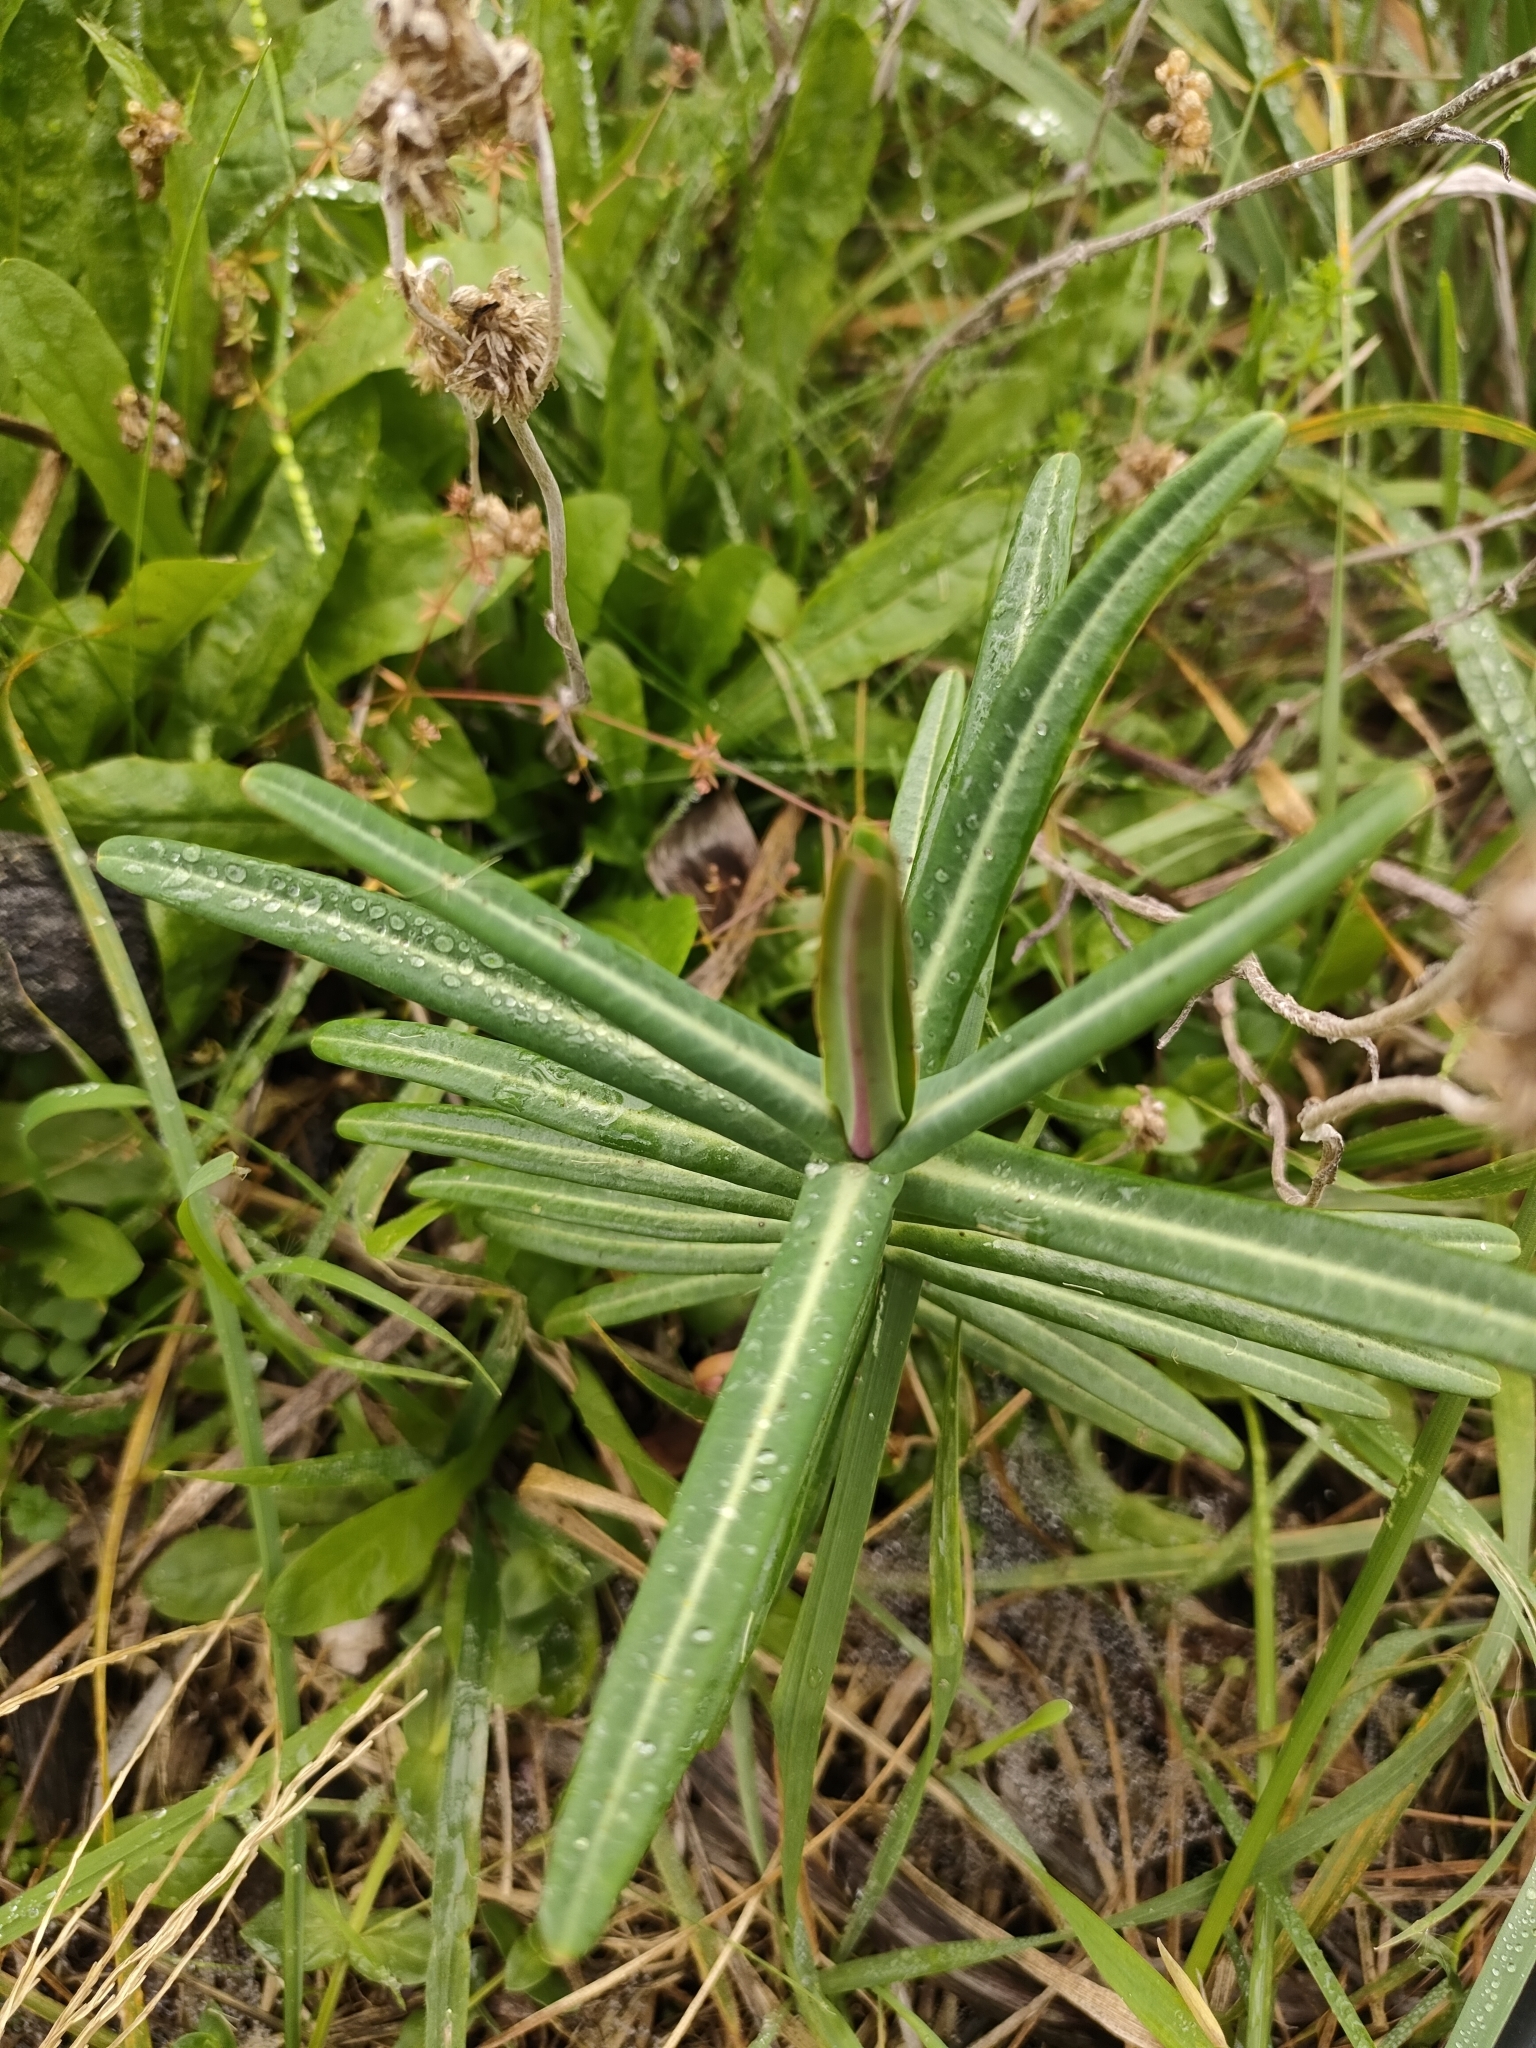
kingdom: Plantae
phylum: Tracheophyta
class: Magnoliopsida
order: Malpighiales
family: Euphorbiaceae
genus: Euphorbia
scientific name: Euphorbia lathyris
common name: Caper spurge
